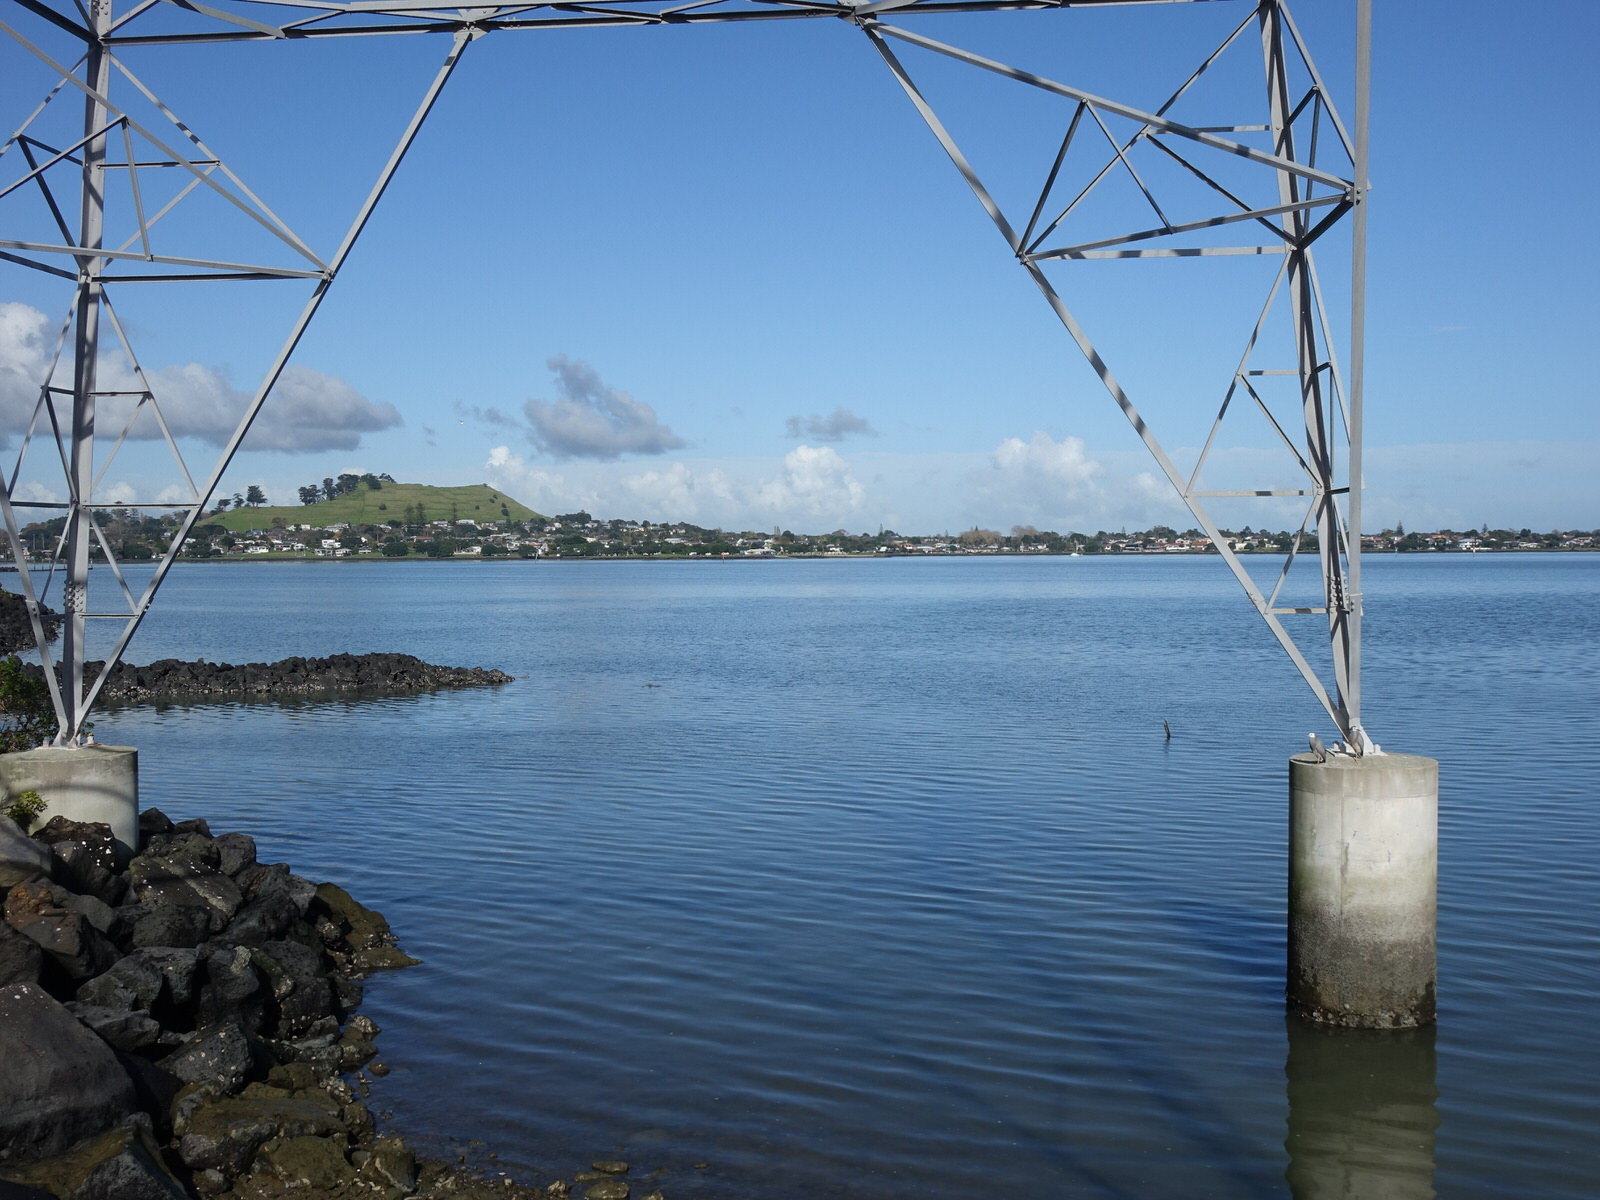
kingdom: Animalia
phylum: Chordata
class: Aves
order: Pelecaniformes
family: Ardeidae
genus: Egretta
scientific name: Egretta novaehollandiae
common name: White-faced heron
